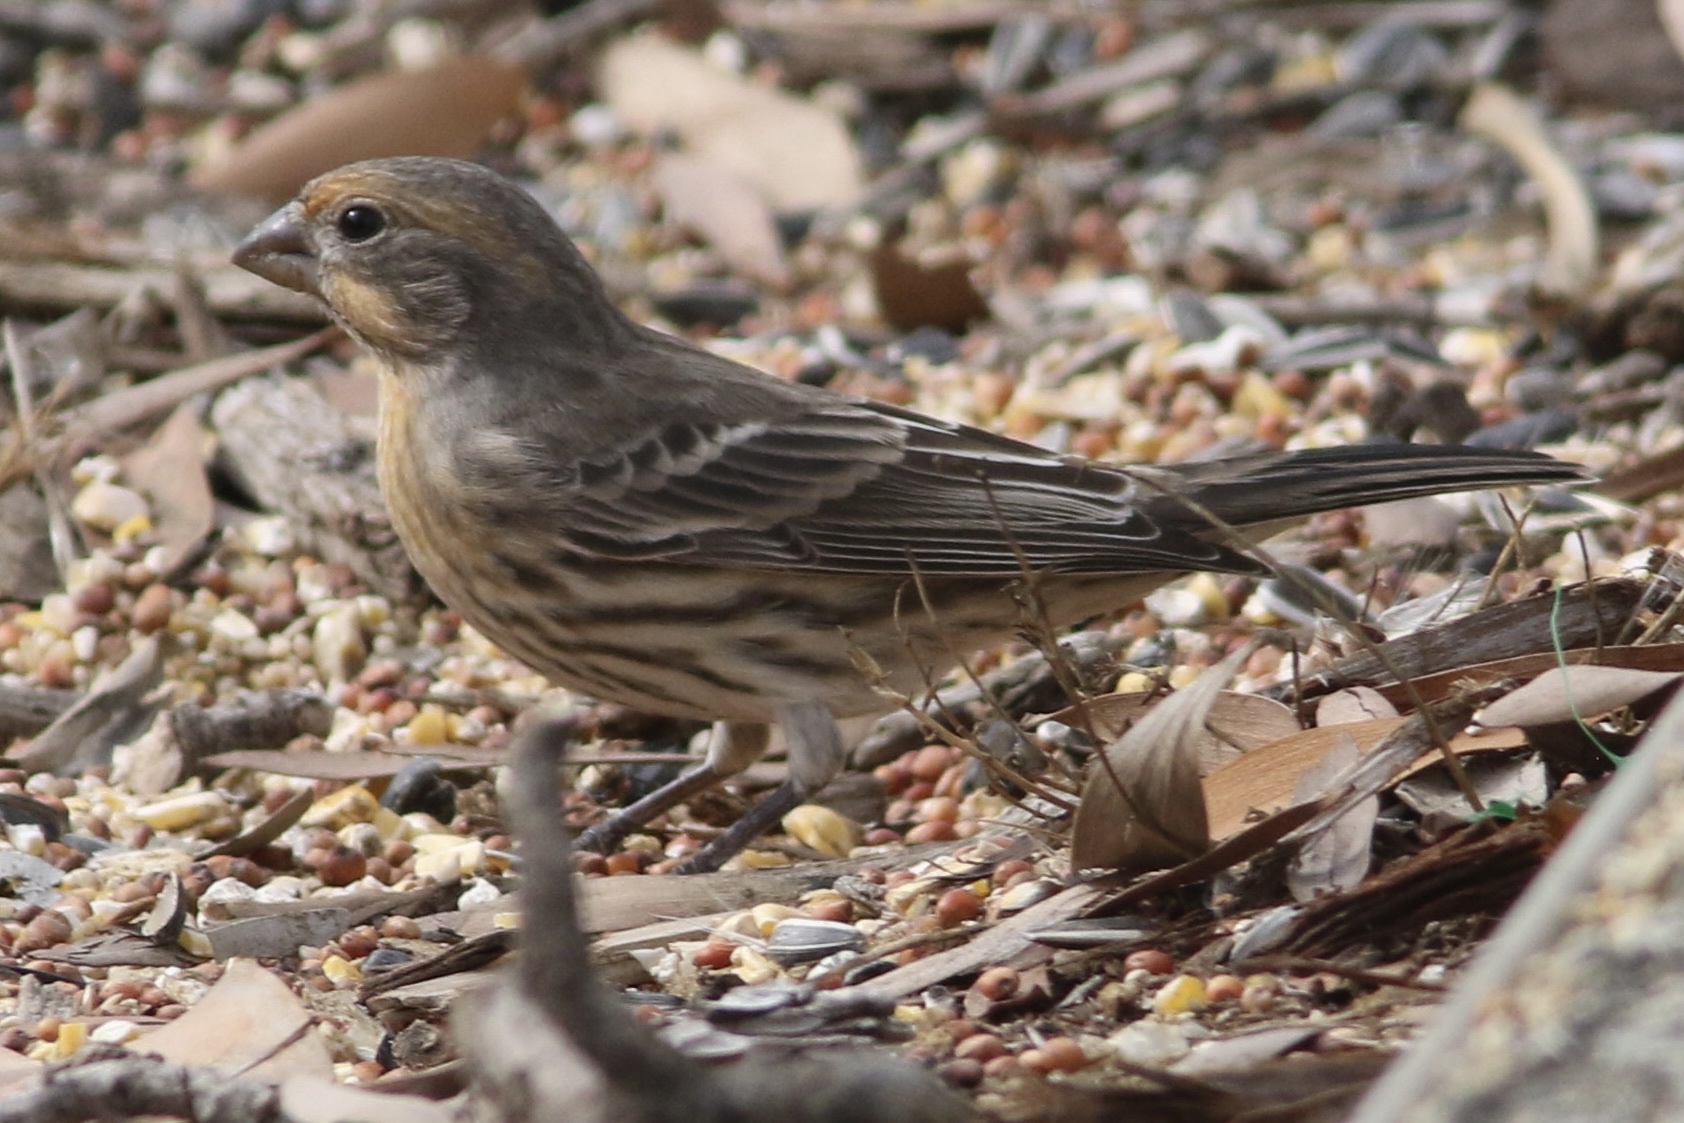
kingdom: Animalia
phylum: Chordata
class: Aves
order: Passeriformes
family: Fringillidae
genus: Haemorhous
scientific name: Haemorhous mexicanus
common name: House finch
